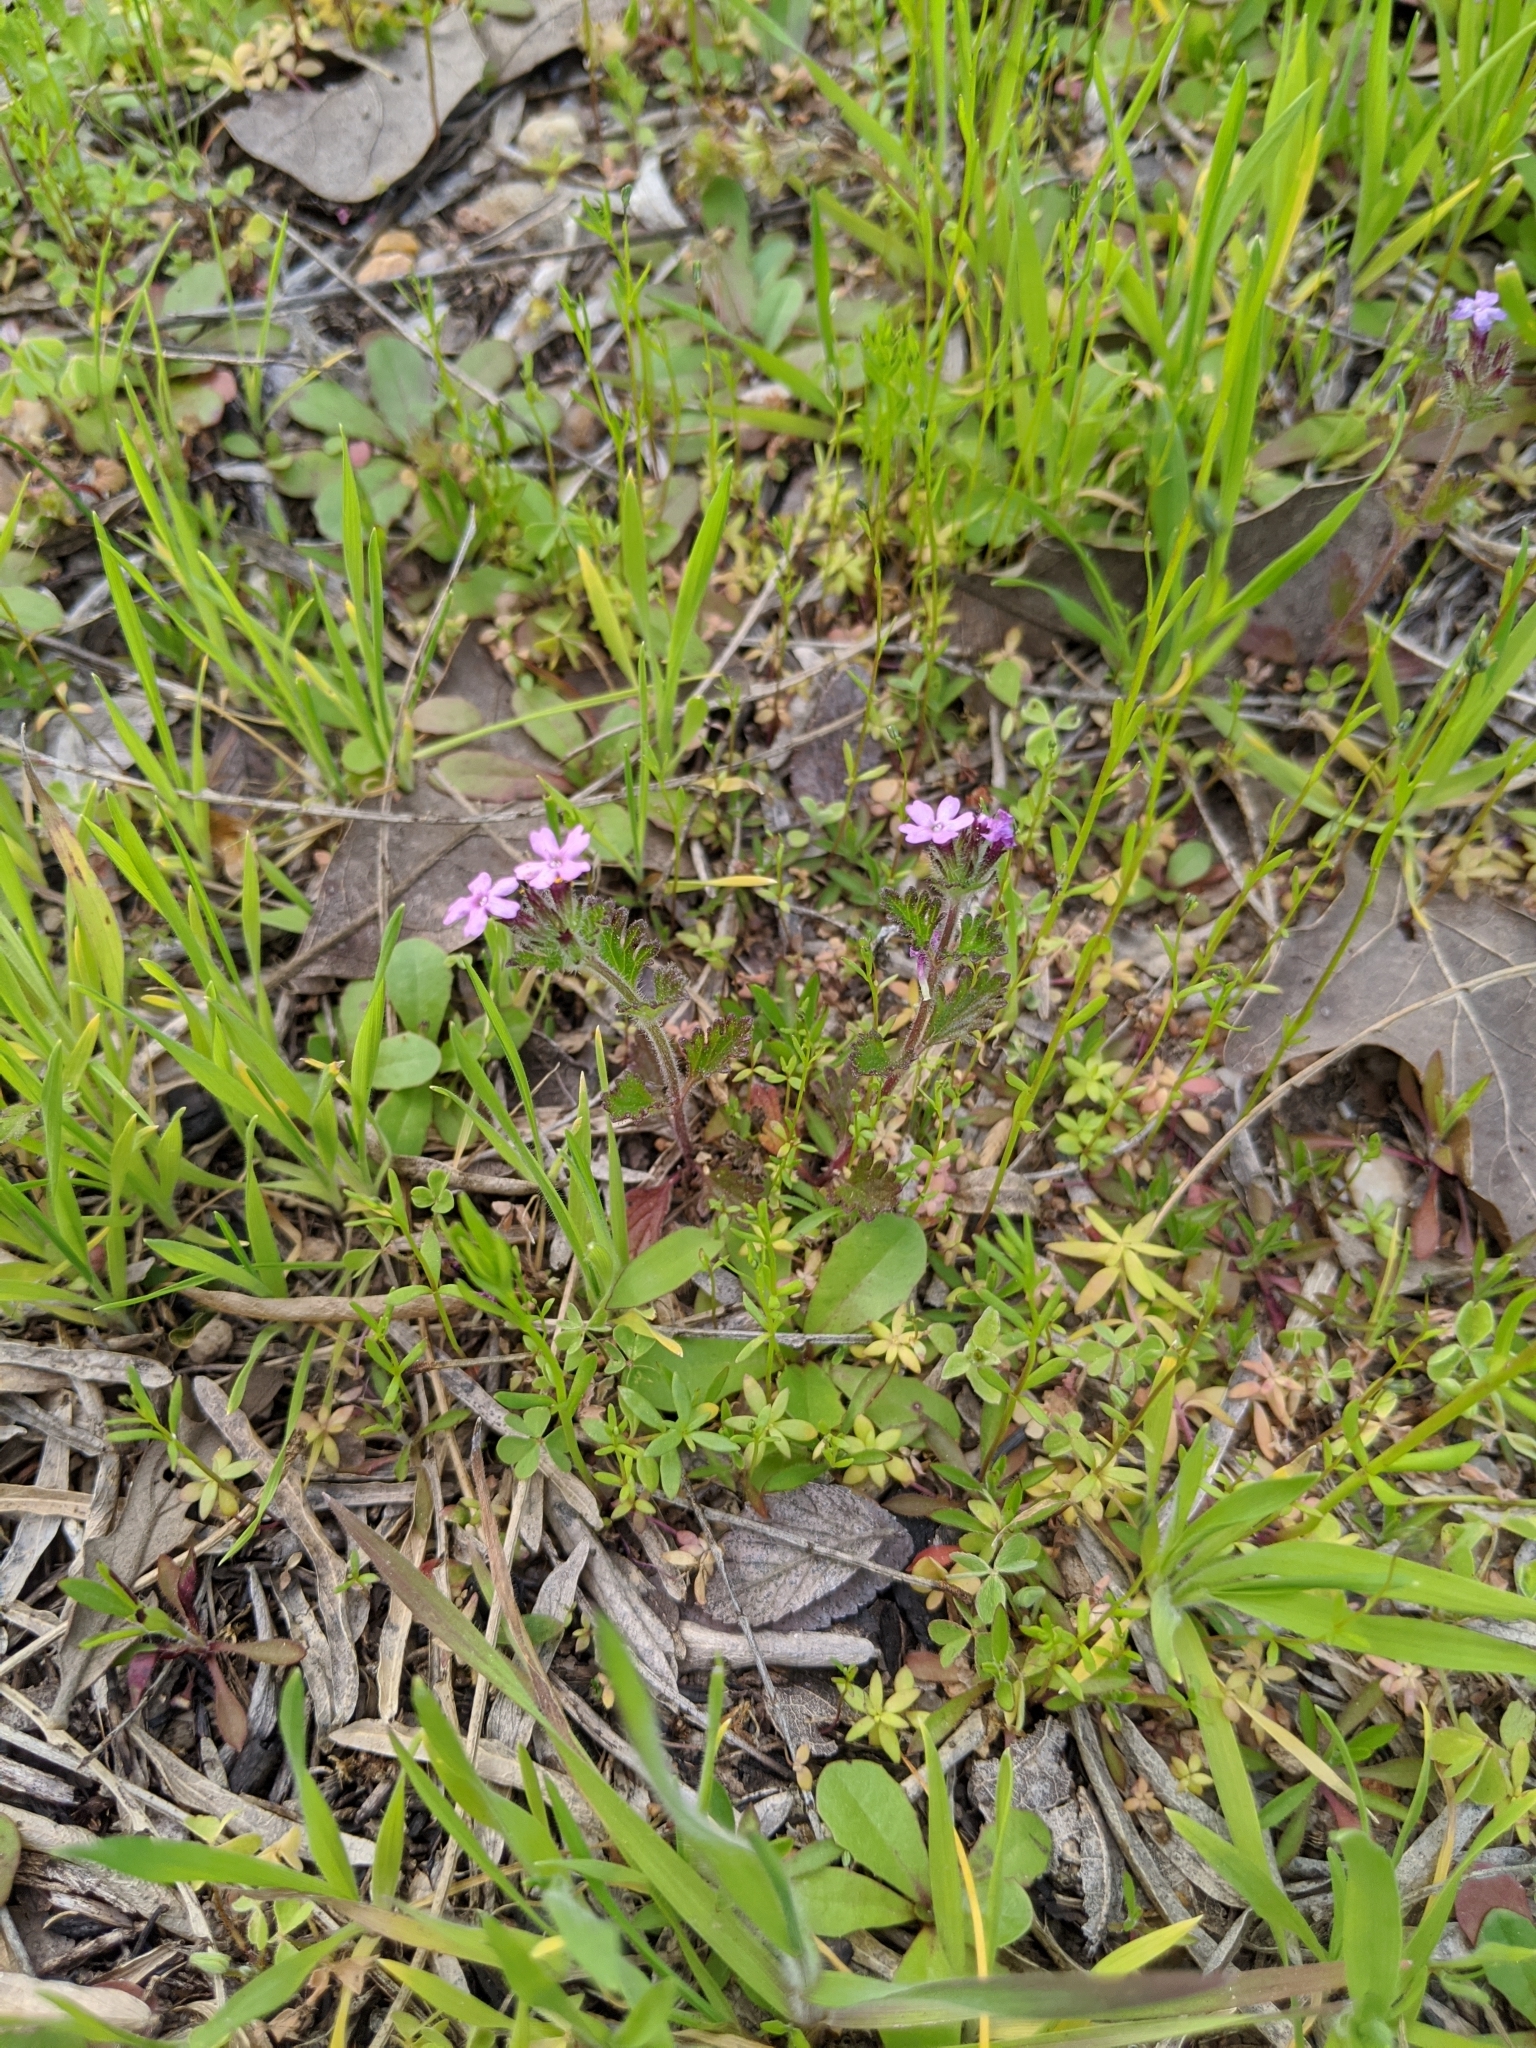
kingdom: Plantae
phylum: Tracheophyta
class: Magnoliopsida
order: Lamiales
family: Verbenaceae
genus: Verbena
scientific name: Verbena pumila
